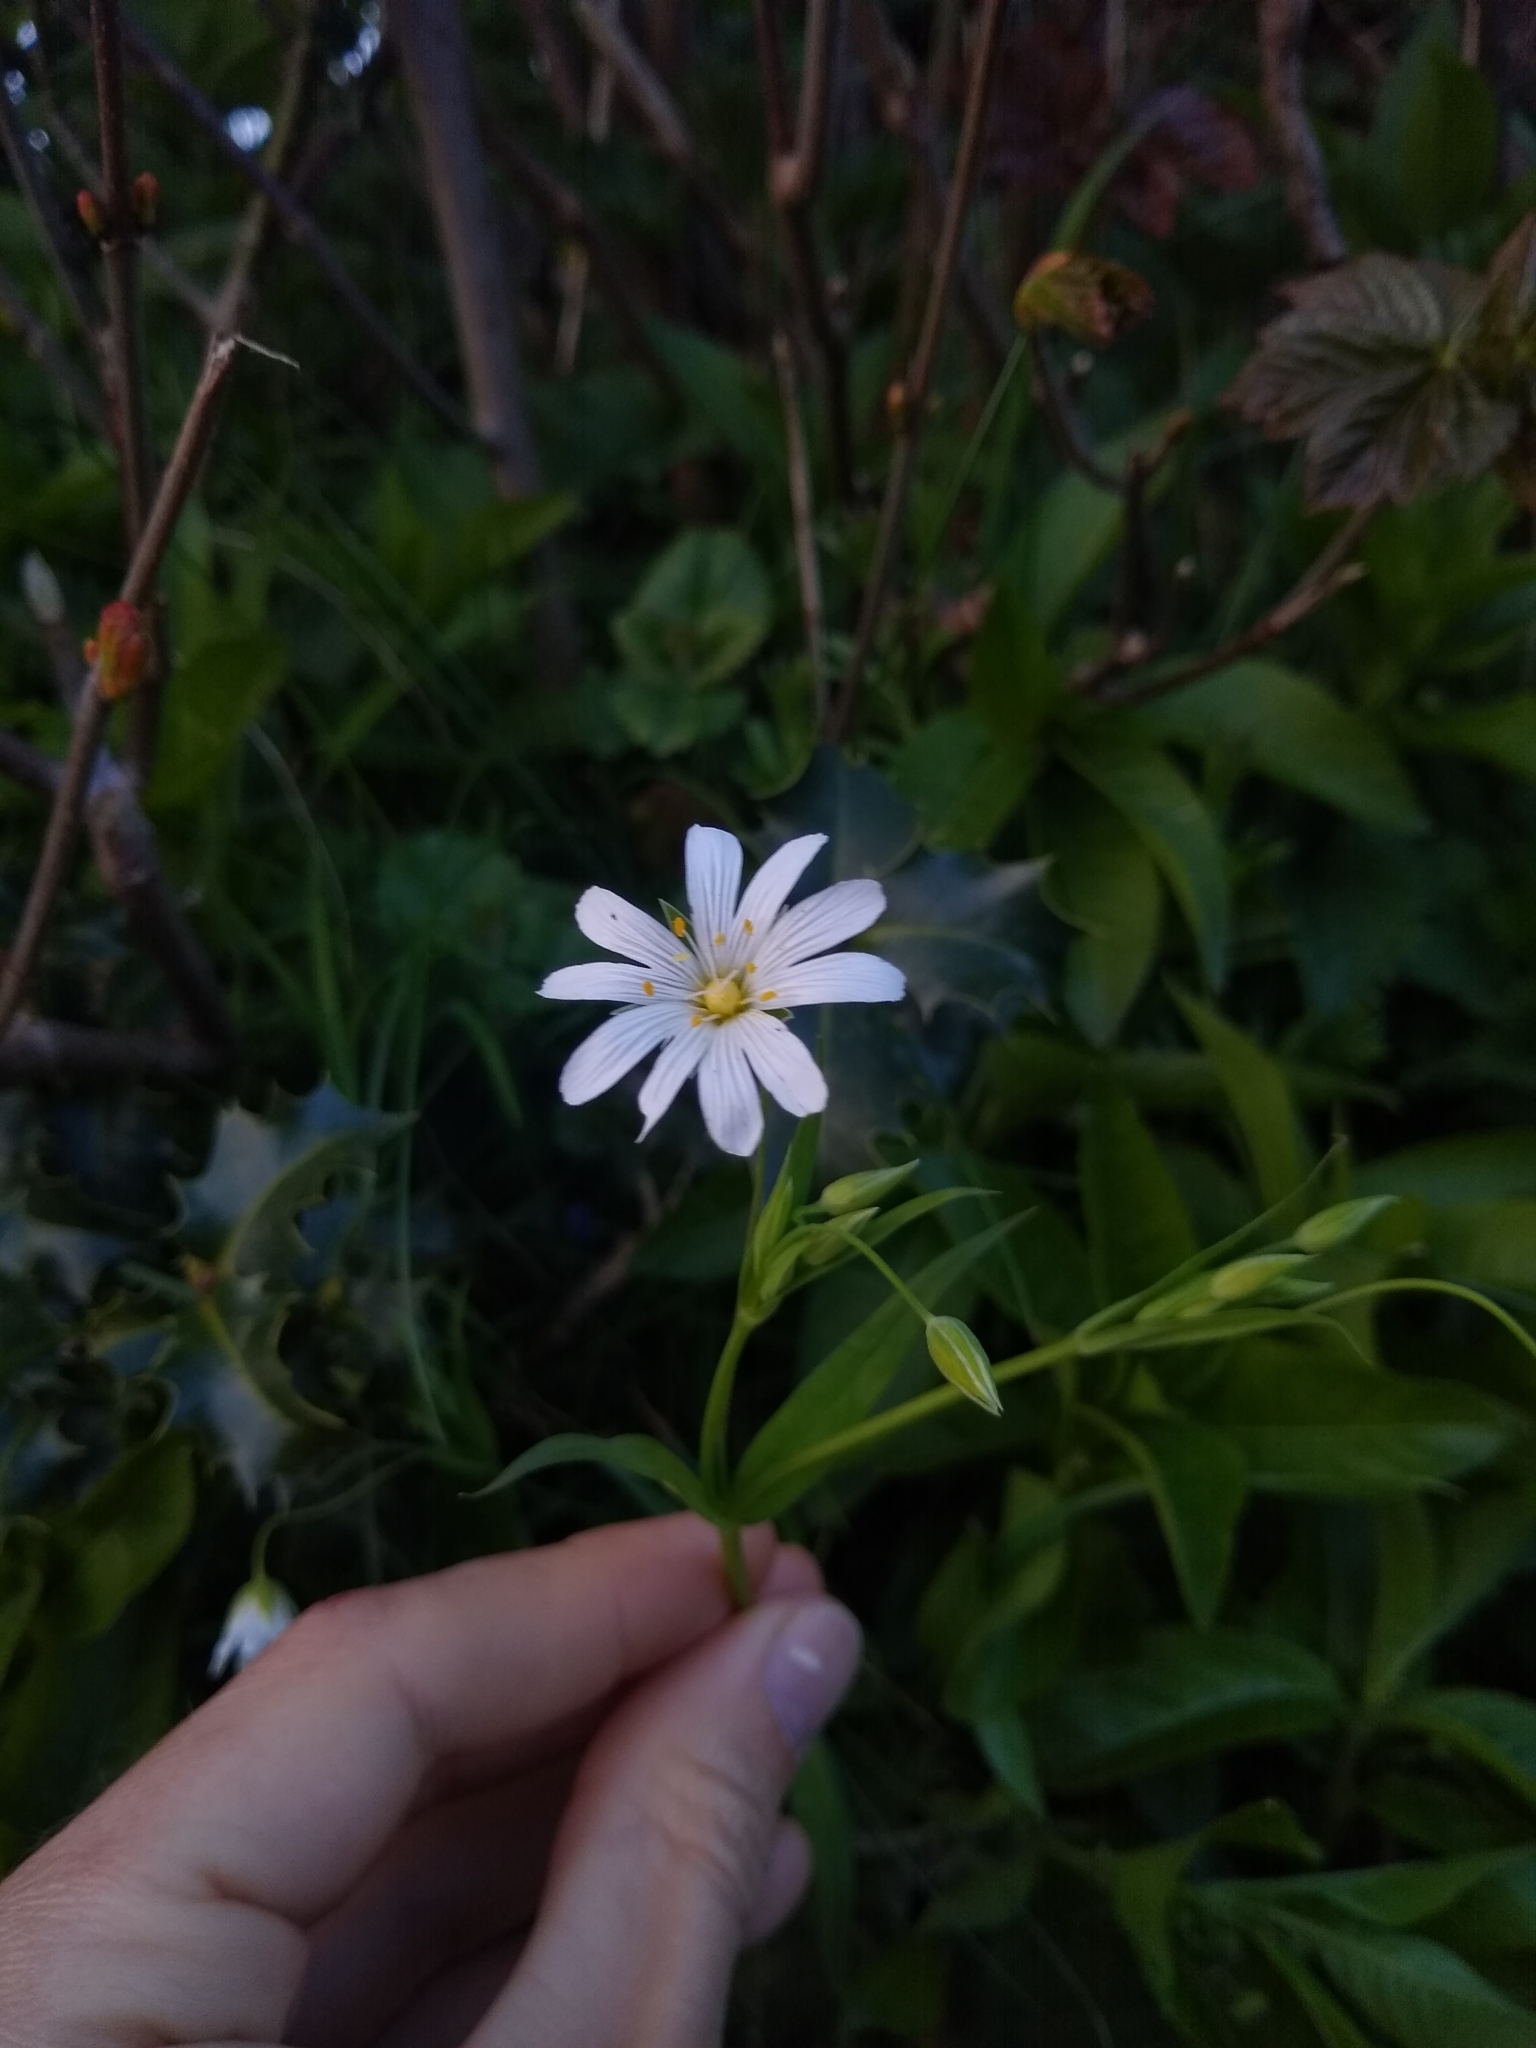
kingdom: Plantae
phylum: Tracheophyta
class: Magnoliopsida
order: Caryophyllales
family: Caryophyllaceae
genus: Rabelera
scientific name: Rabelera holostea
